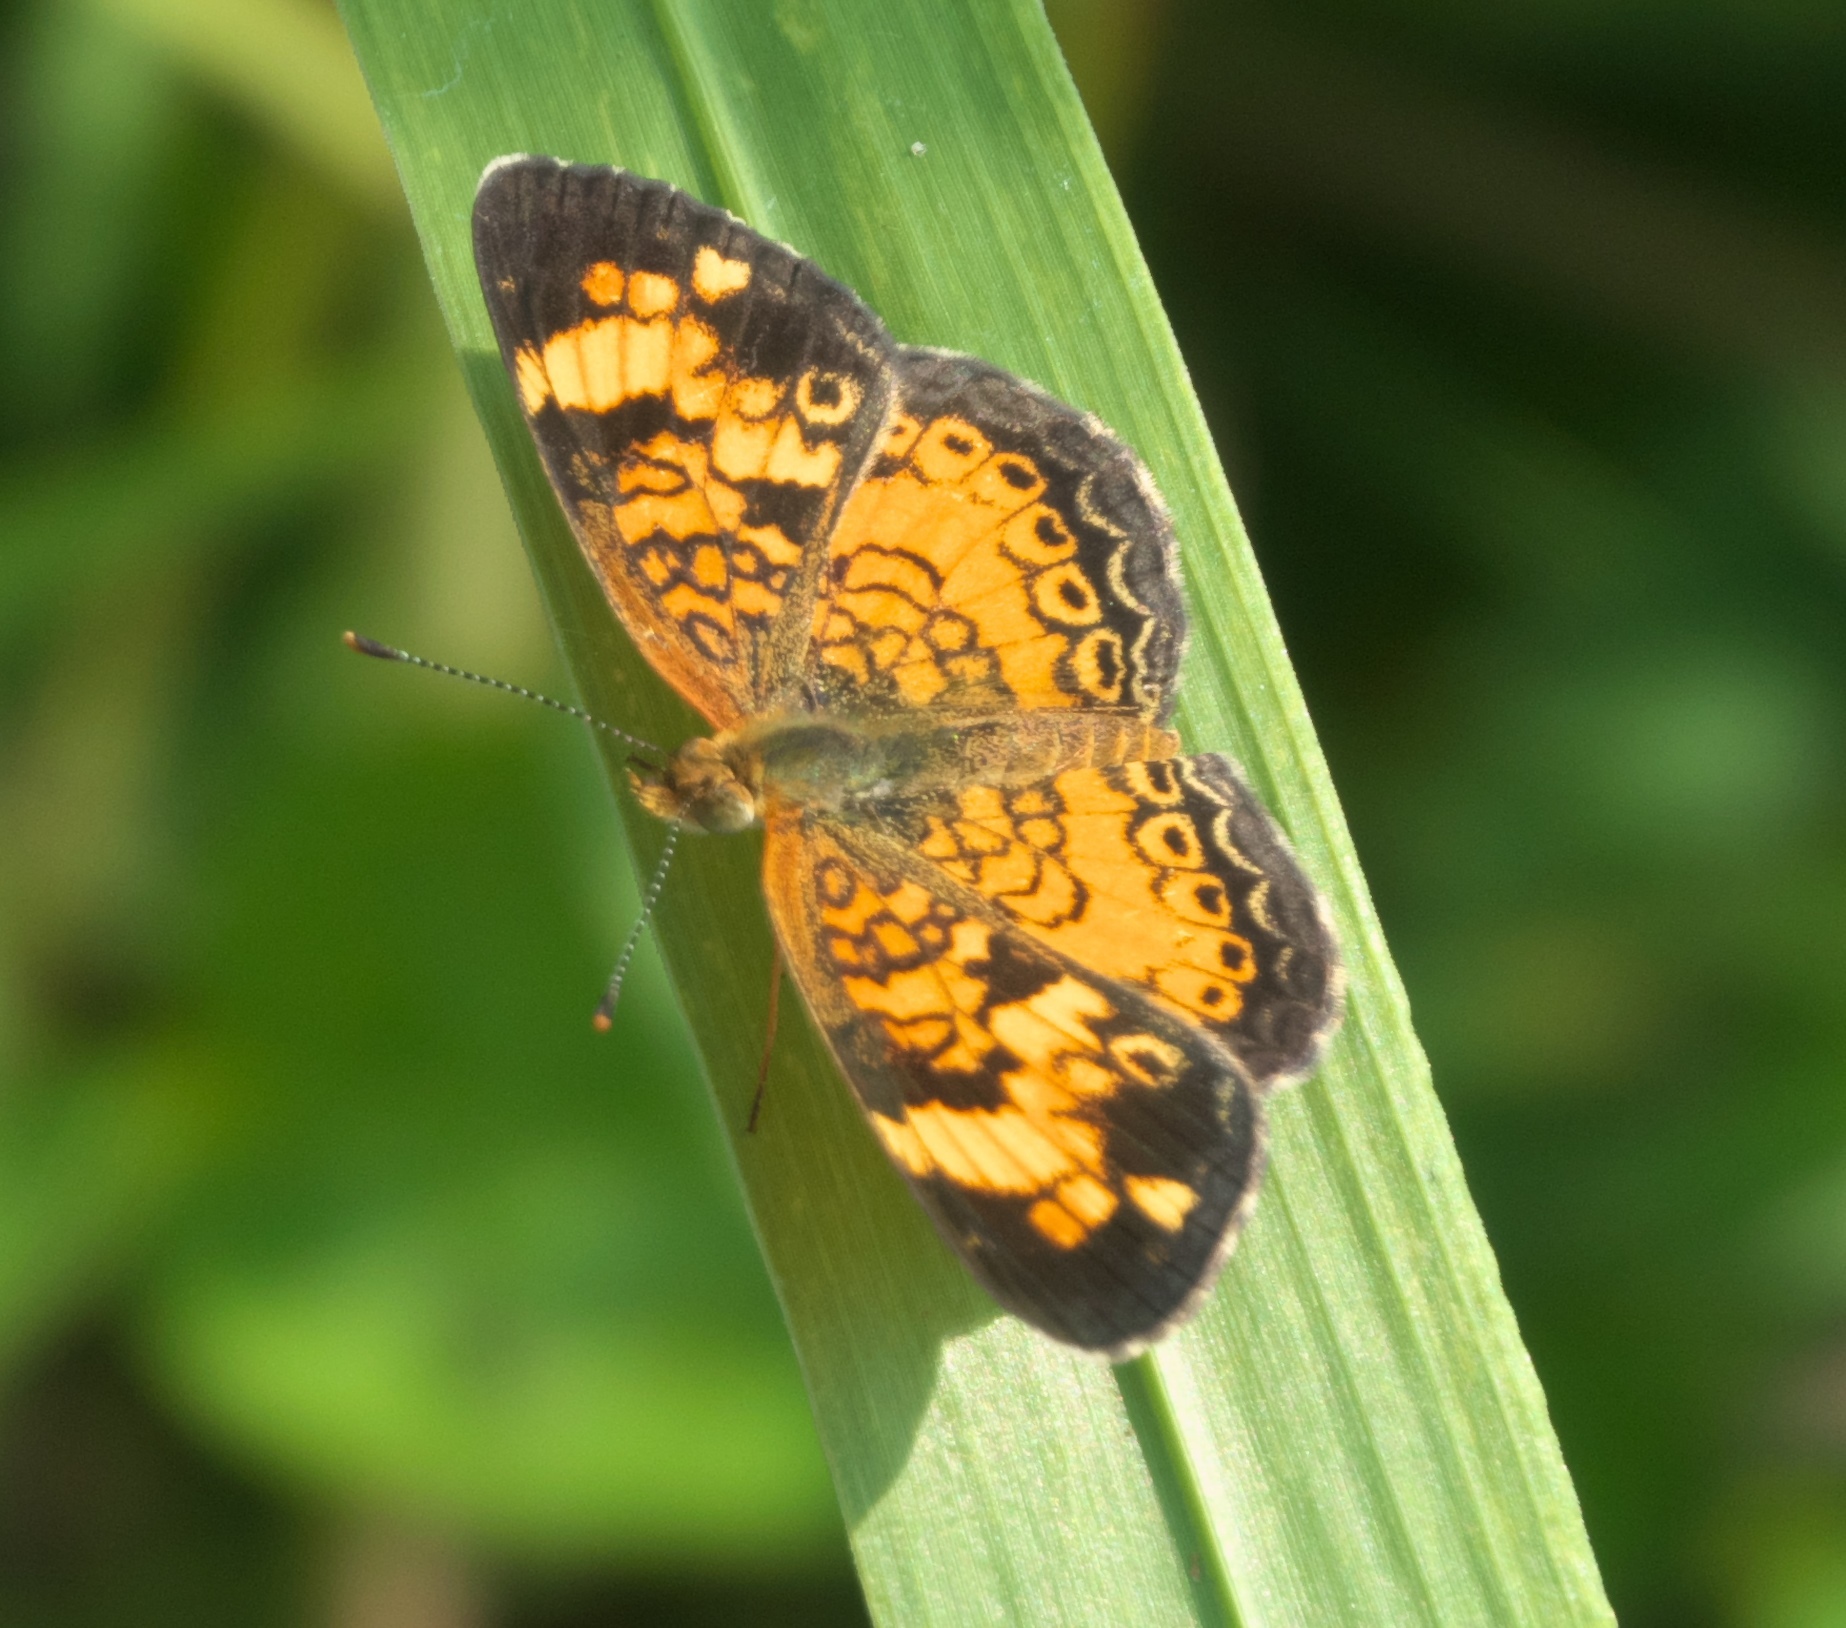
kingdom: Animalia
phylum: Arthropoda
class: Insecta
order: Lepidoptera
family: Nymphalidae
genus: Phyciodes
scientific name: Phyciodes tharos
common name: Pearl crescent
